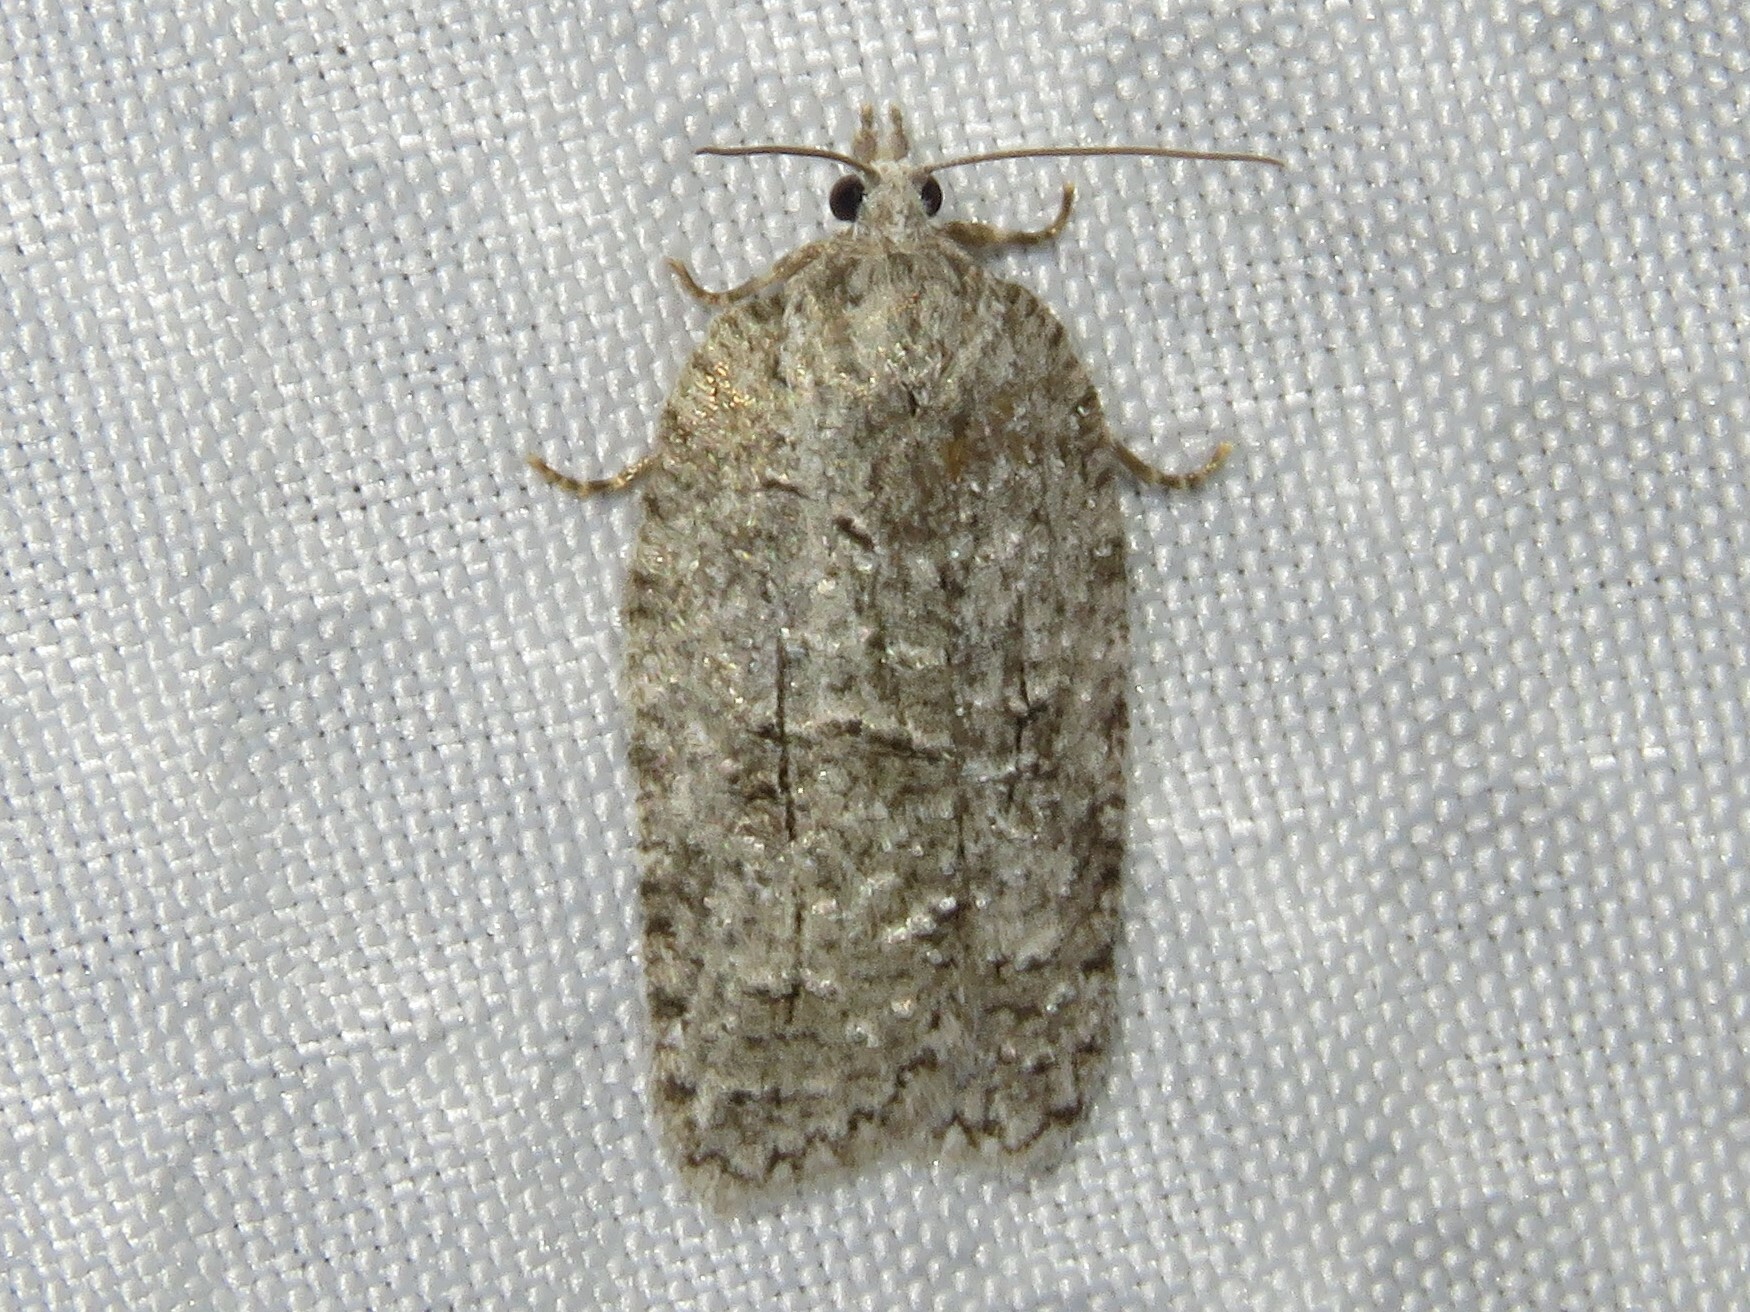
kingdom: Animalia
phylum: Arthropoda
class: Insecta
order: Lepidoptera
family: Tortricidae
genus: Acleris
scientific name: Acleris nigrolinea
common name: Black-lined acleris
